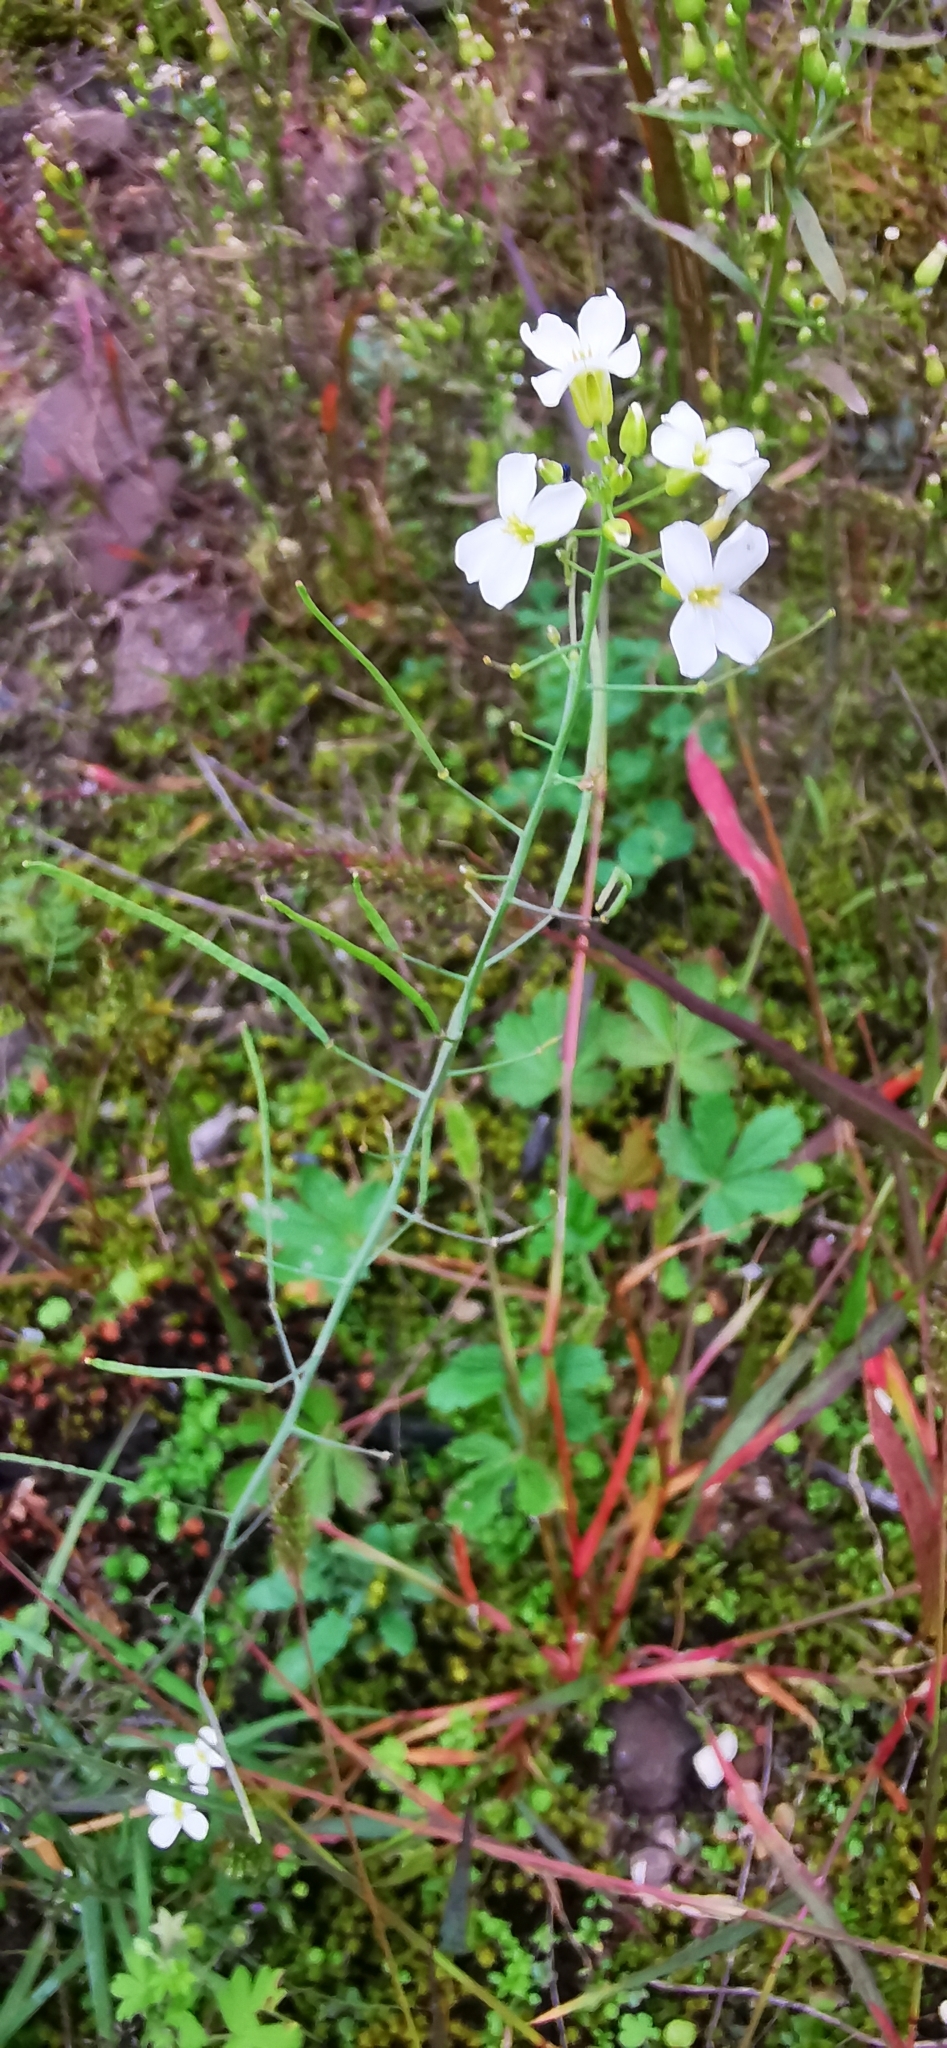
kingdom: Plantae
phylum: Tracheophyta
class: Magnoliopsida
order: Brassicales
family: Brassicaceae
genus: Arabidopsis
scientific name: Arabidopsis arenosa
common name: Sand rock-cress
